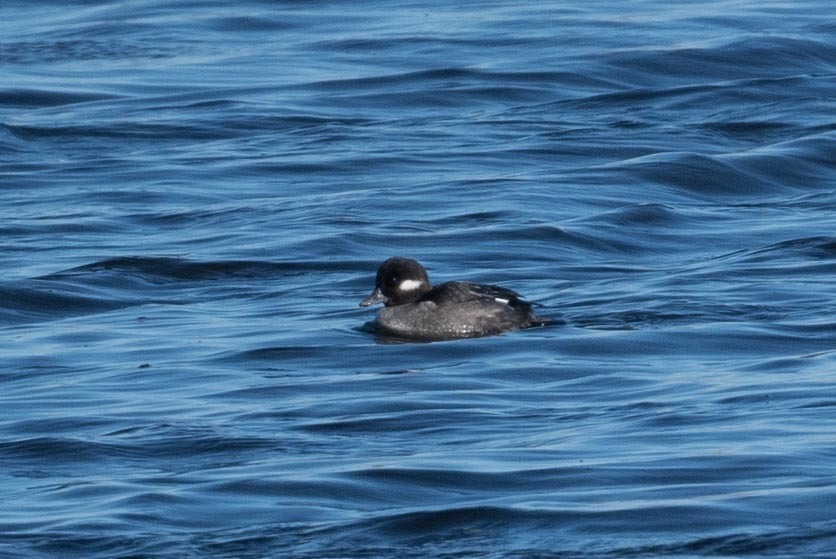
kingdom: Animalia
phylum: Chordata
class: Aves
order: Anseriformes
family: Anatidae
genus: Bucephala
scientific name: Bucephala albeola
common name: Bufflehead
